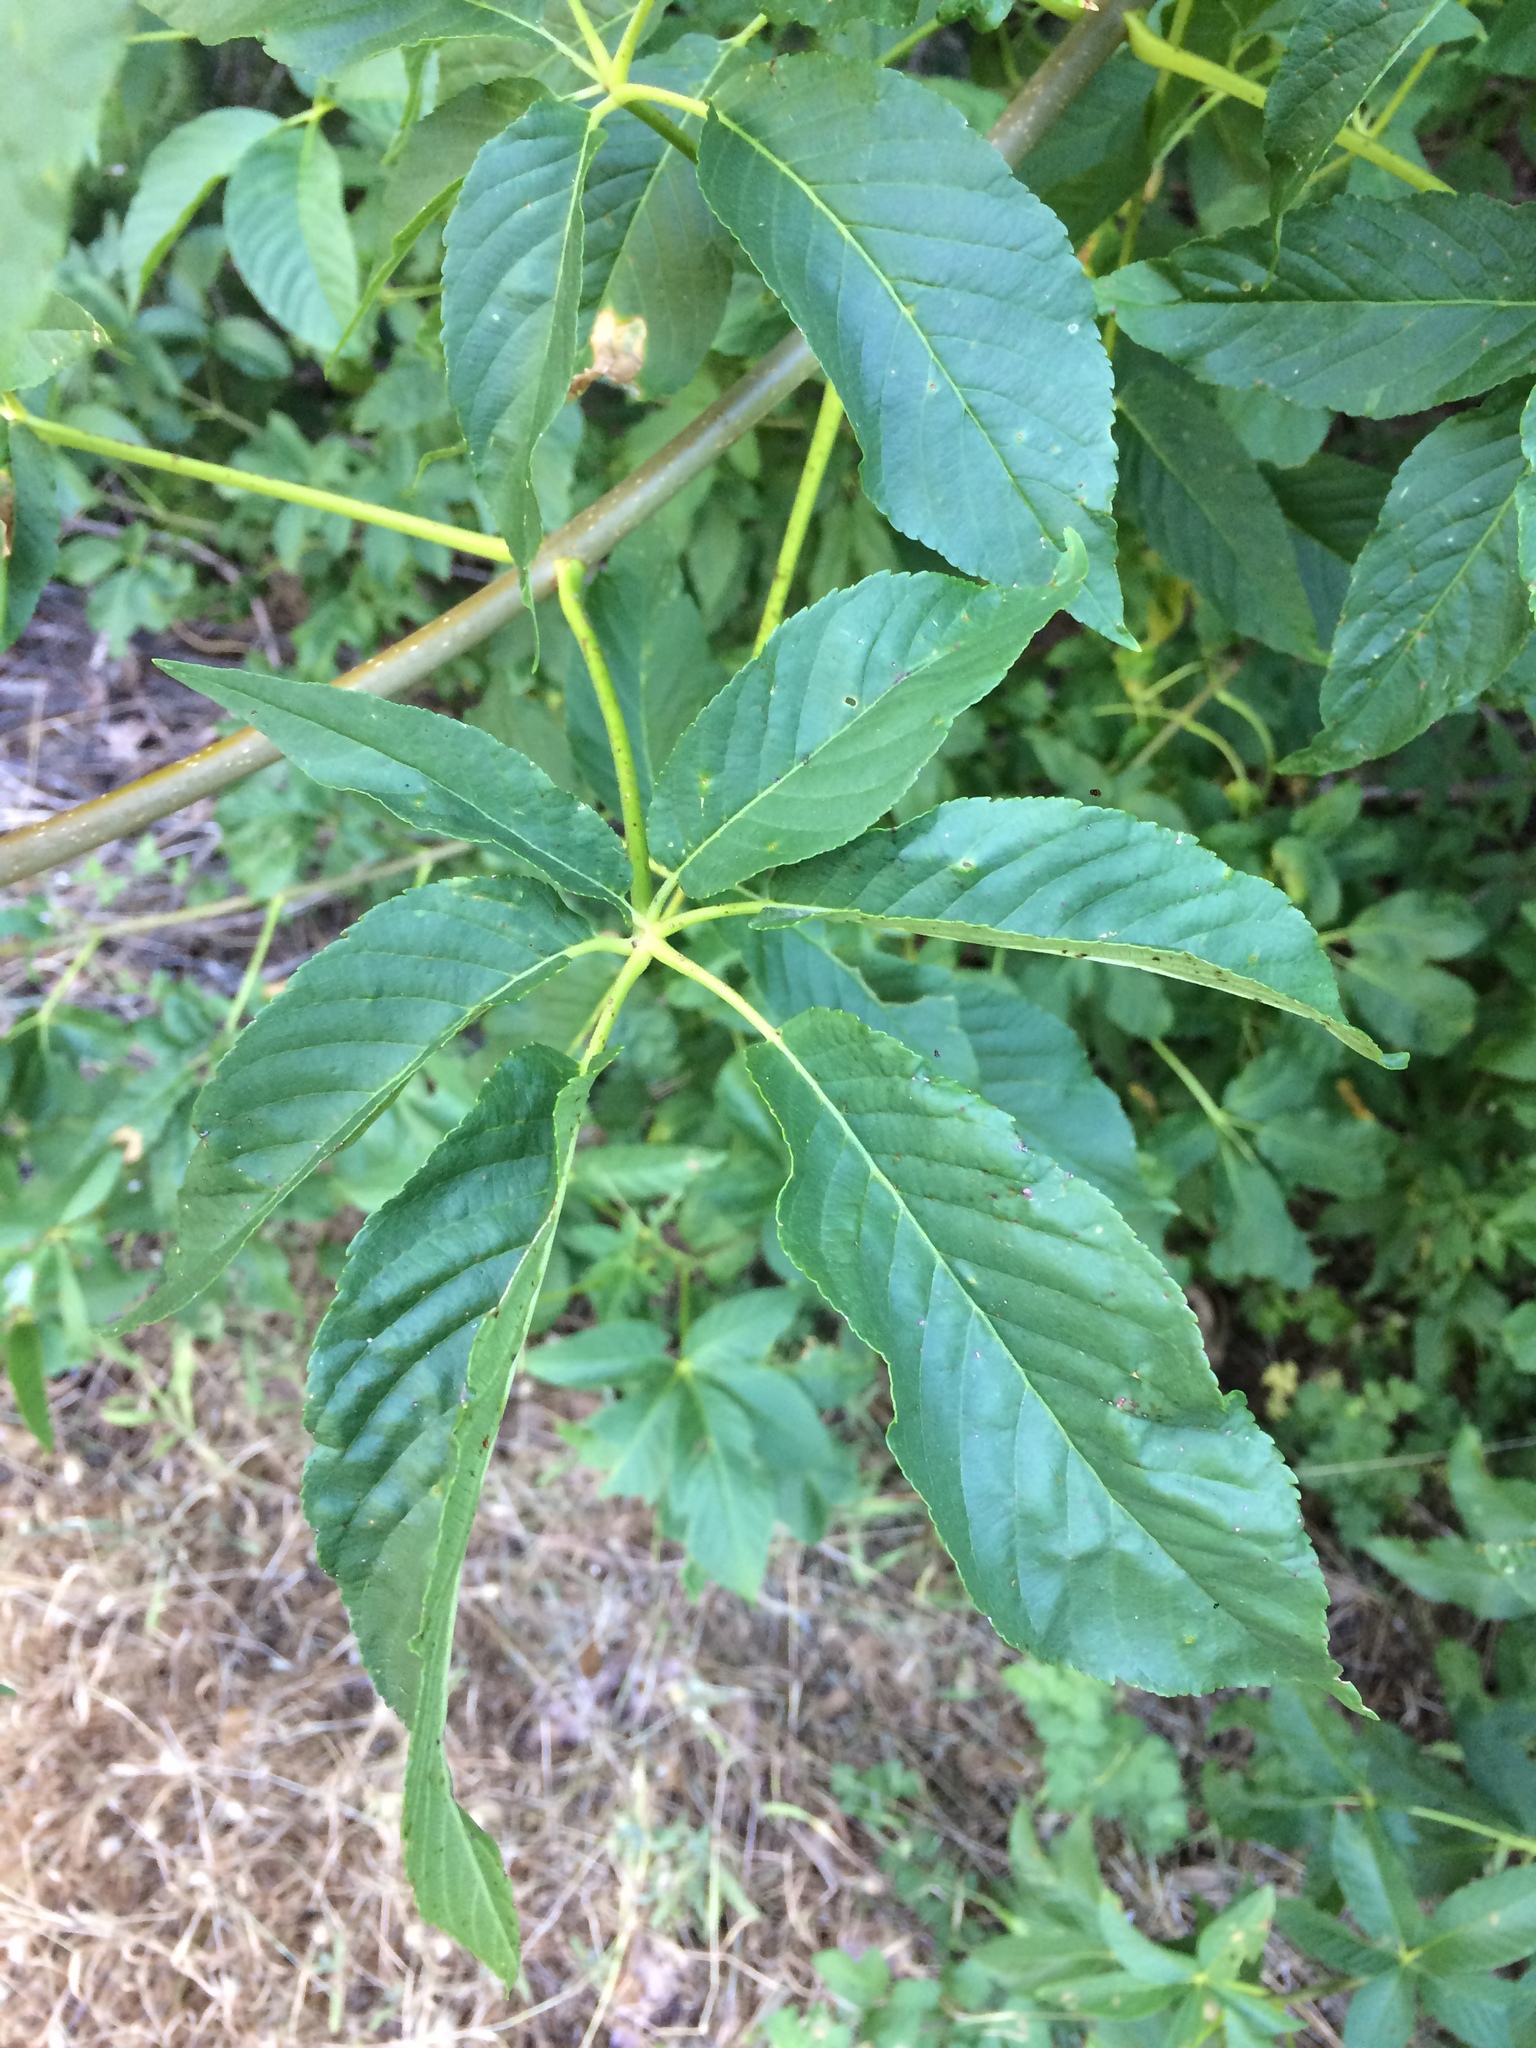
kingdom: Plantae
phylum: Tracheophyta
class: Magnoliopsida
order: Sapindales
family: Sapindaceae
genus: Aesculus
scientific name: Aesculus californica
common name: California buckeye
